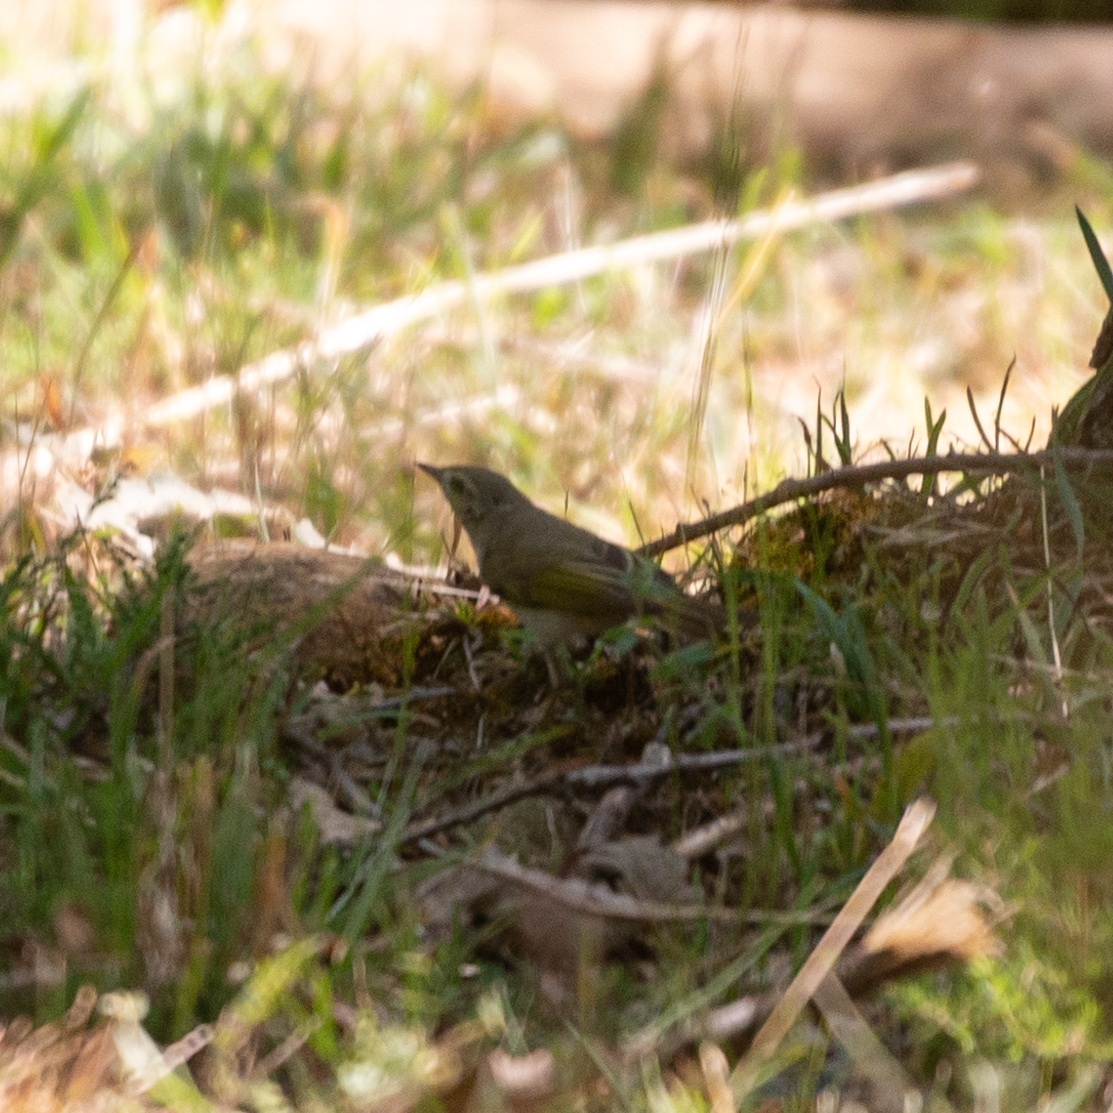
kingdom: Animalia
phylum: Chordata
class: Aves
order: Passeriformes
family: Phylloscopidae
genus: Phylloscopus
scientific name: Phylloscopus bonelli
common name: Western bonelli's warbler
